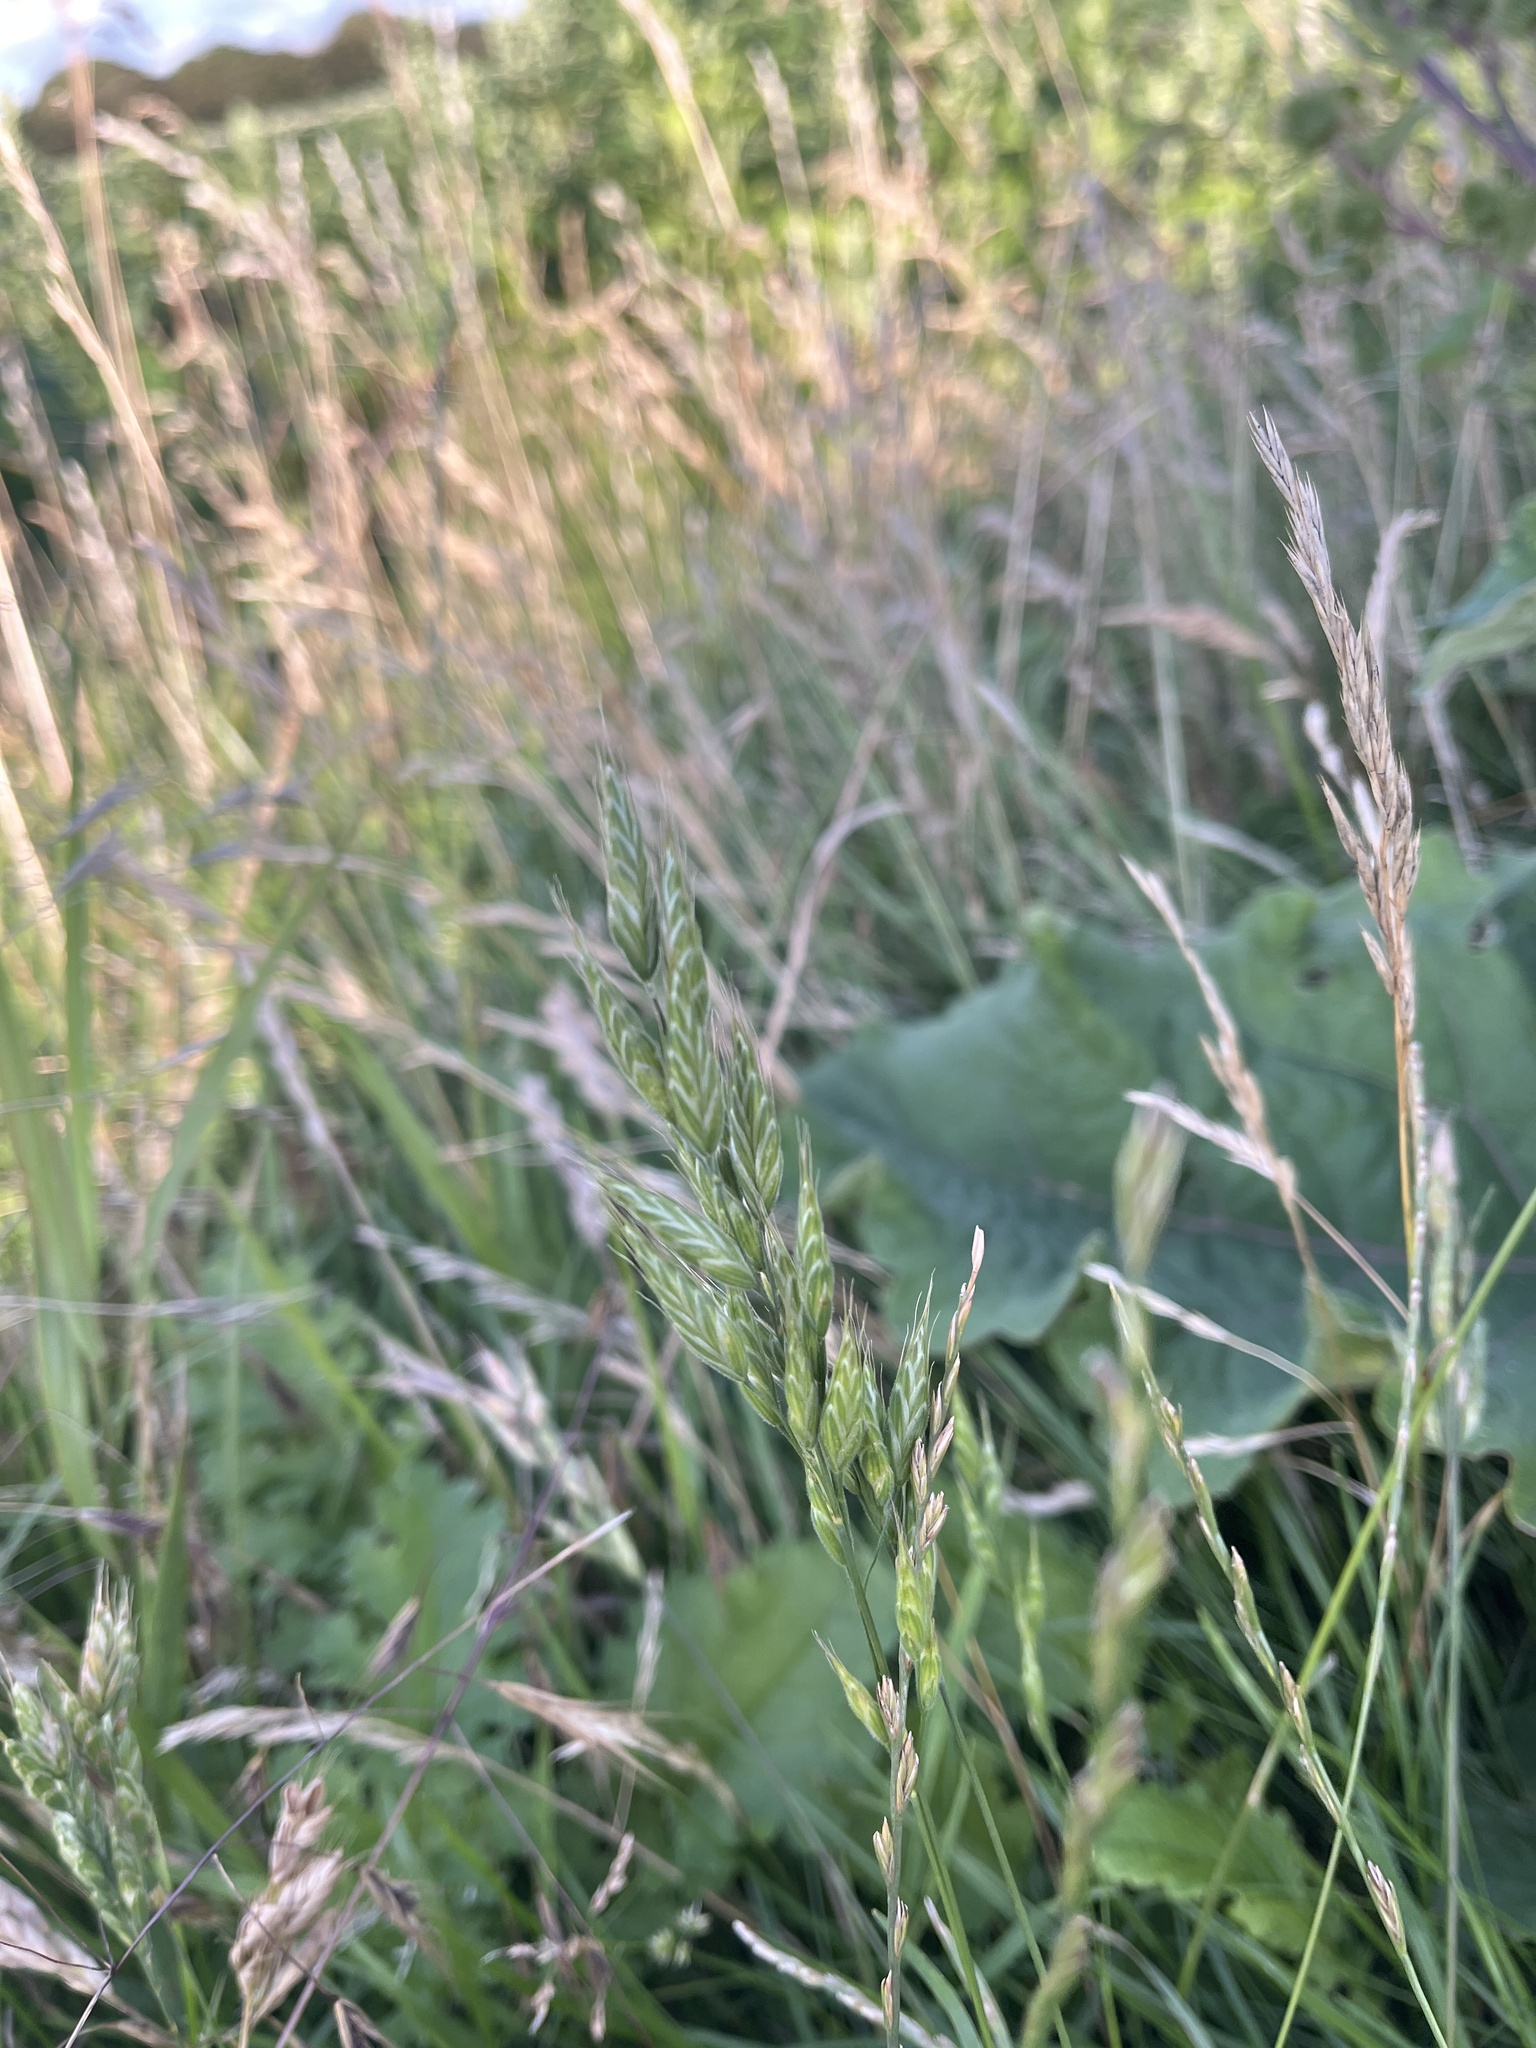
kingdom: Plantae
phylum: Tracheophyta
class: Liliopsida
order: Poales
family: Poaceae
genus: Bromus
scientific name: Bromus hordeaceus
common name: Soft brome
